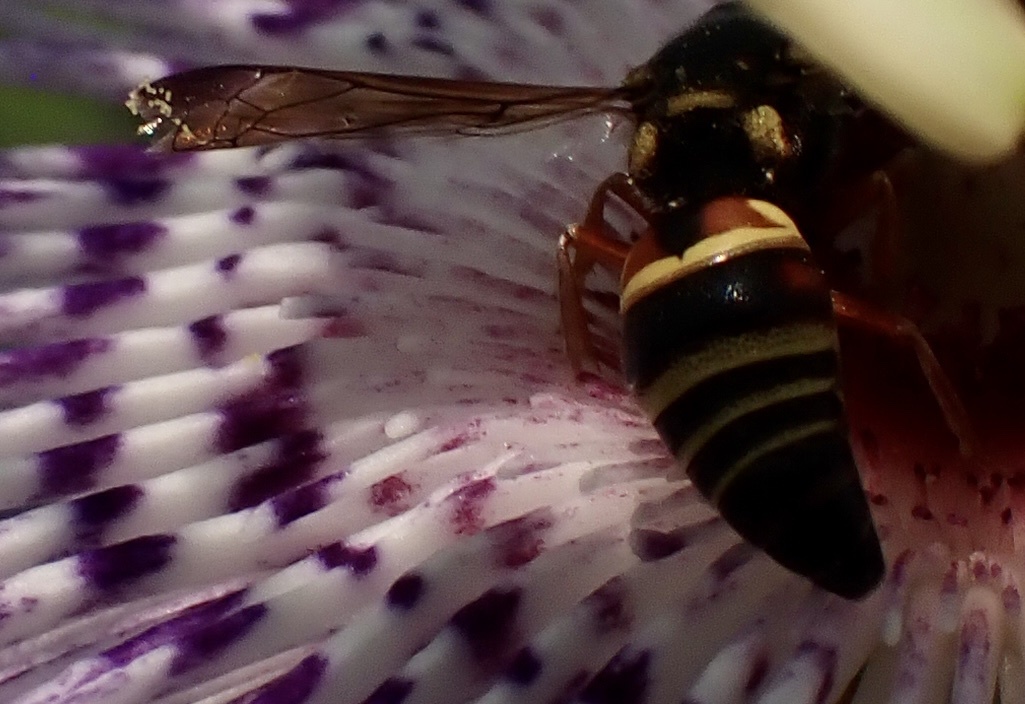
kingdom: Animalia
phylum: Arthropoda
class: Insecta
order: Hymenoptera
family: Eumenidae
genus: Euodynerus
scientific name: Euodynerus annulatus
